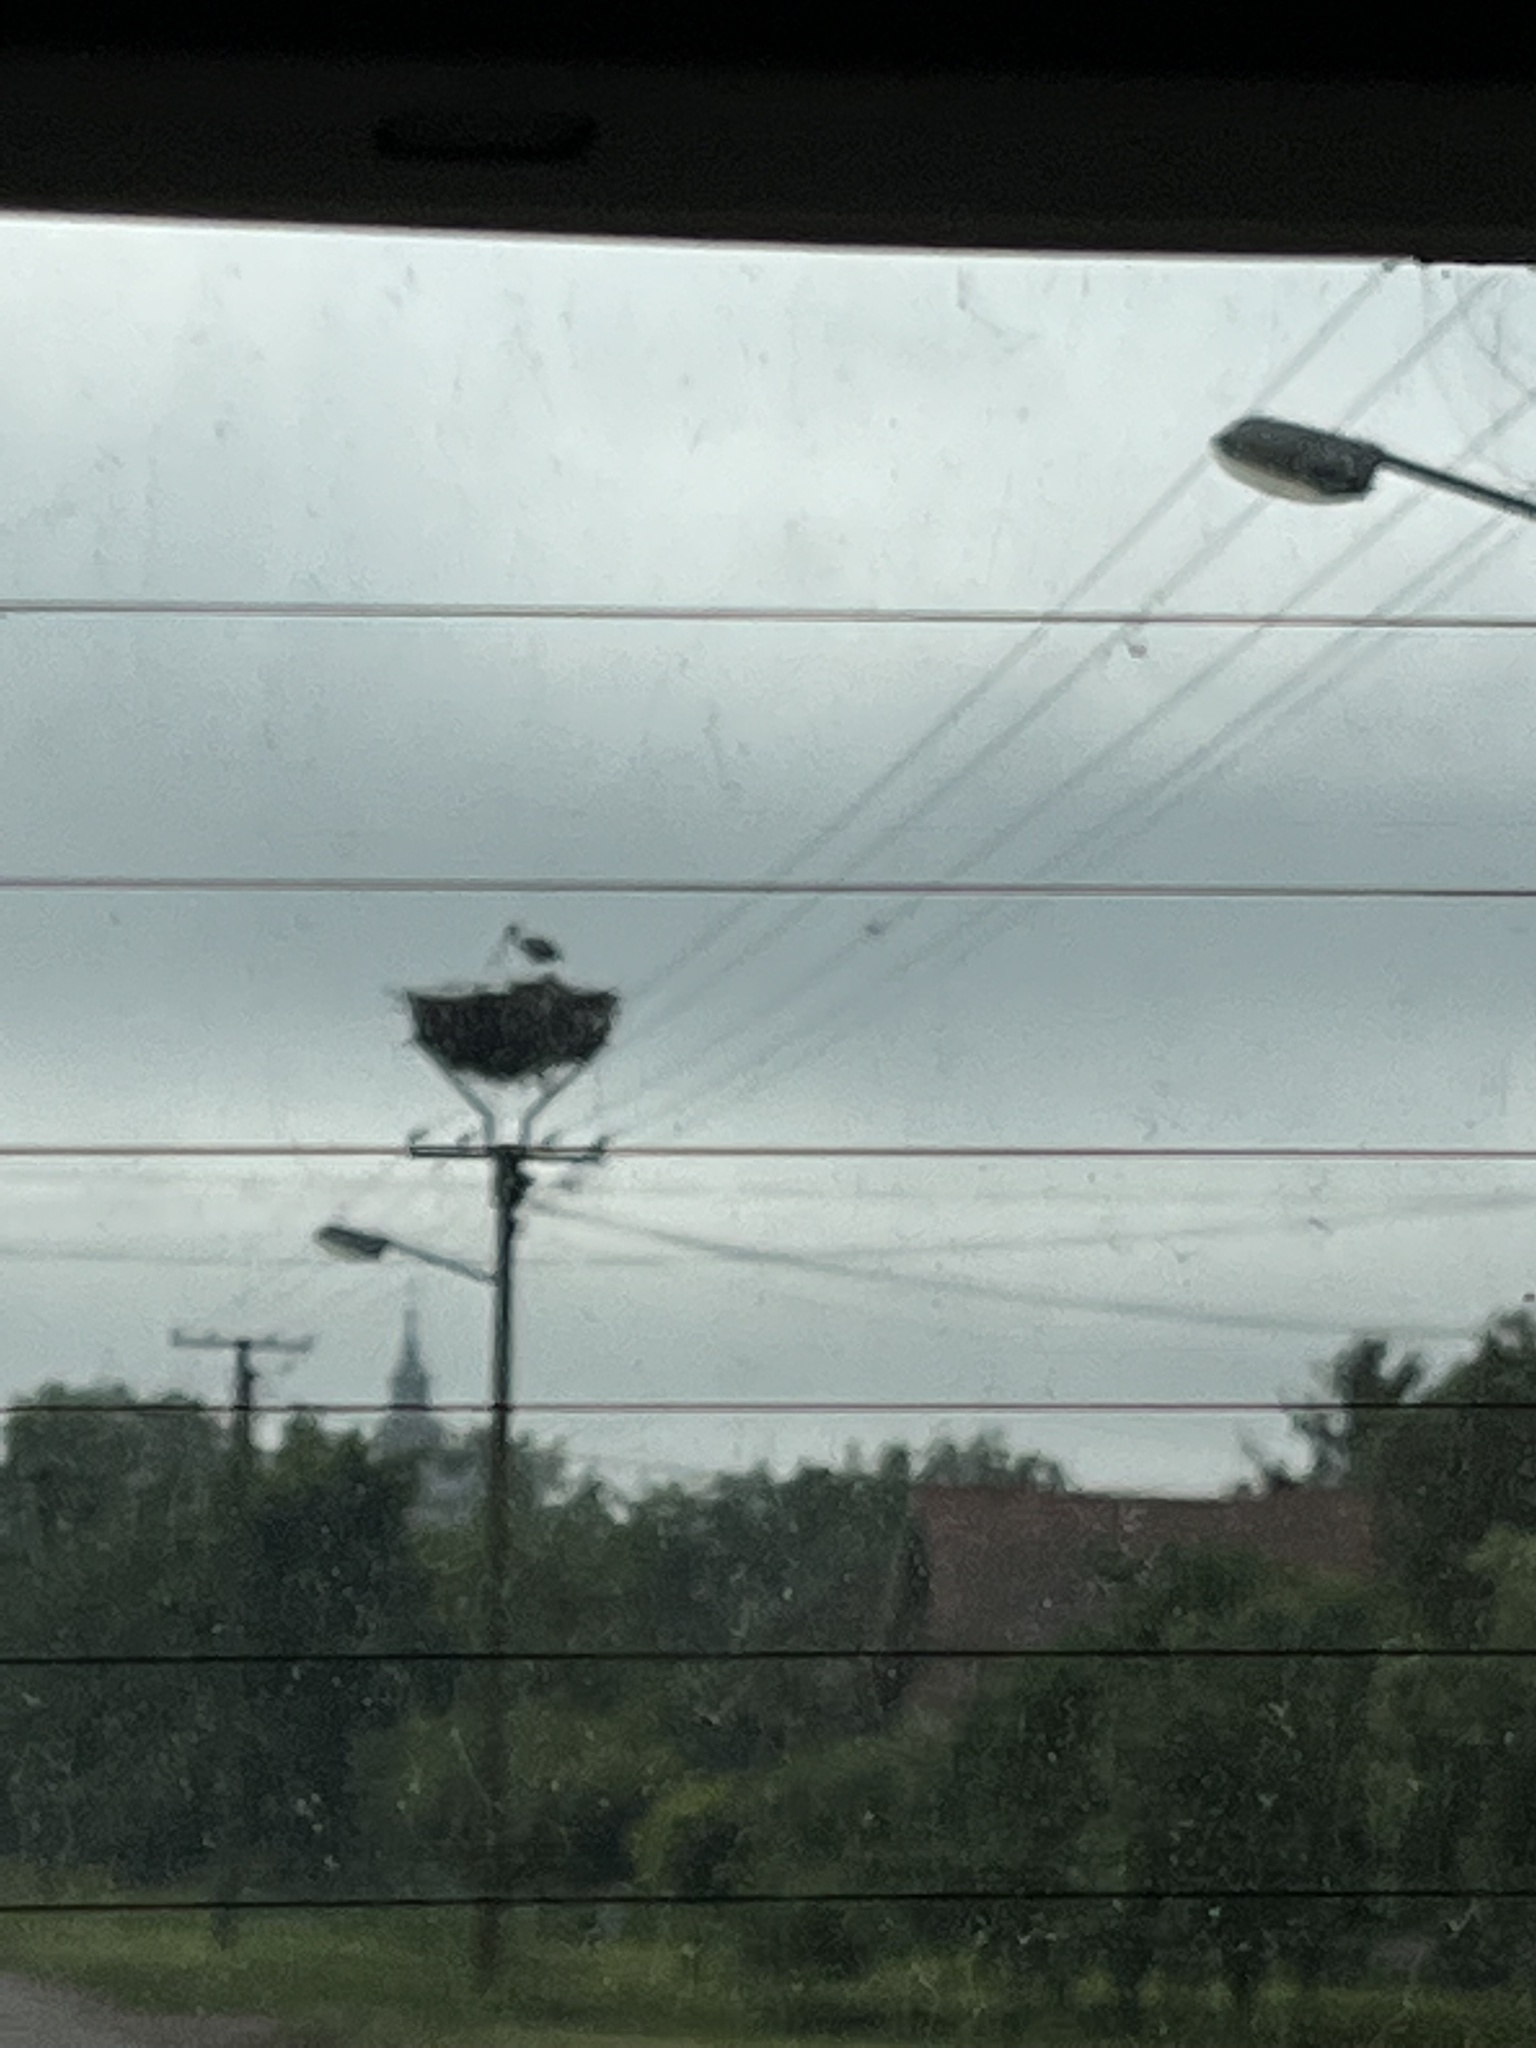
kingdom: Animalia
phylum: Chordata
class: Aves
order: Ciconiiformes
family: Ciconiidae
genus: Ciconia
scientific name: Ciconia ciconia
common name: White stork
